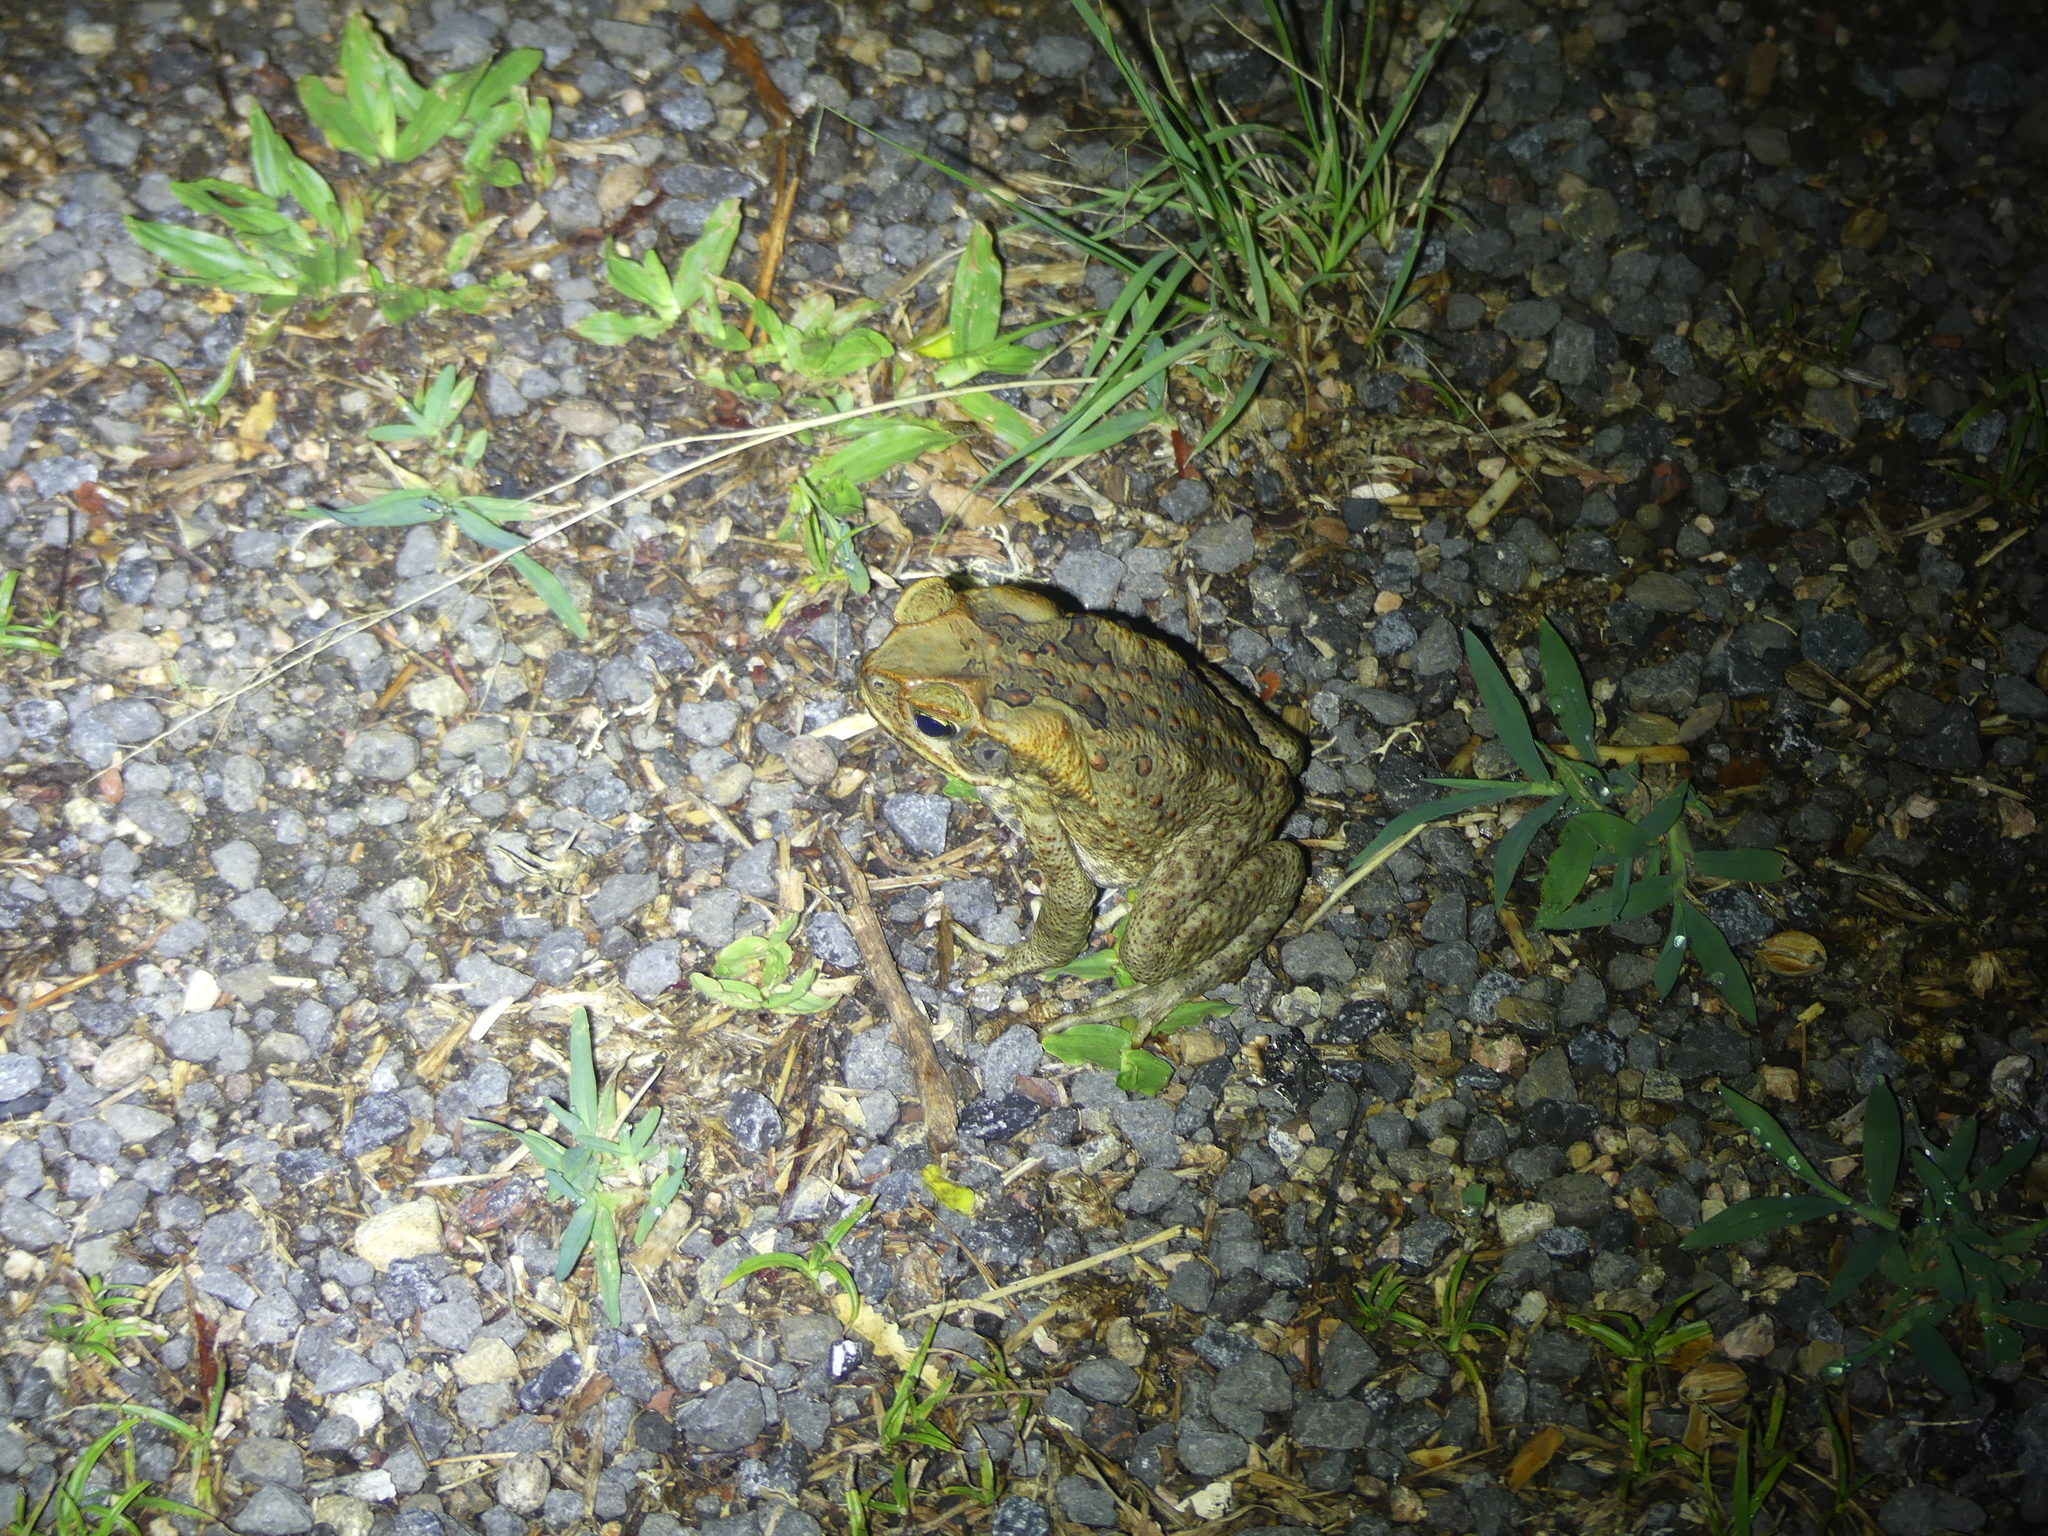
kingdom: Animalia
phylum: Chordata
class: Amphibia
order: Anura
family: Bufonidae
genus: Rhinella
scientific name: Rhinella marina
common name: Cane toad
